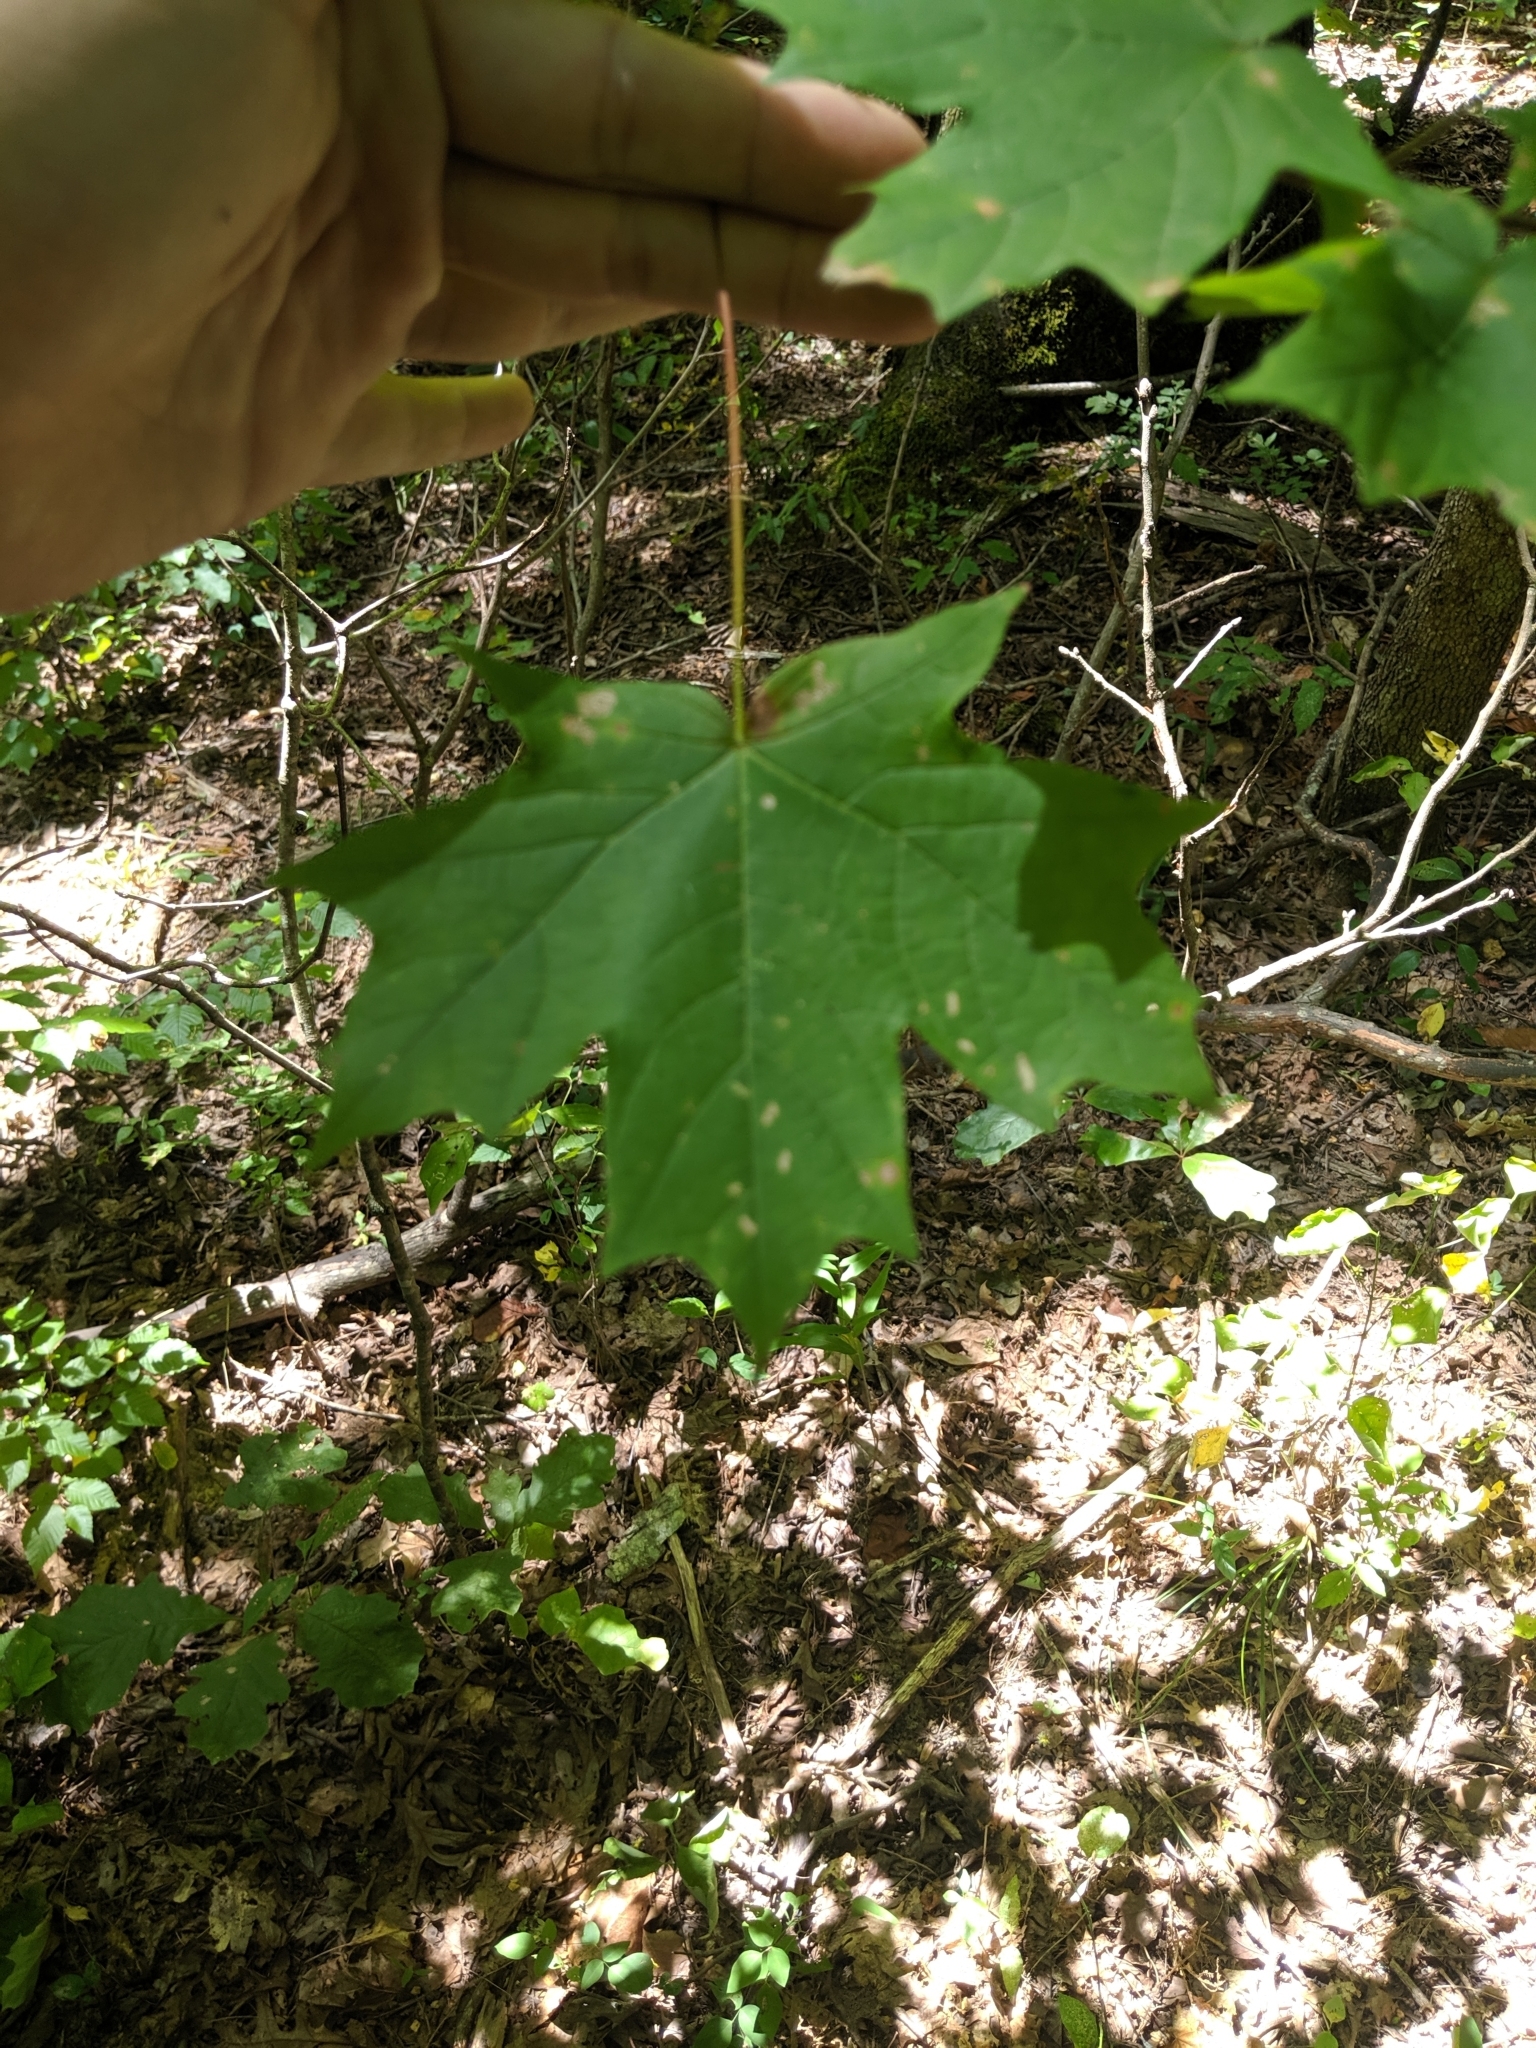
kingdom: Plantae
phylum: Tracheophyta
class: Magnoliopsida
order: Sapindales
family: Sapindaceae
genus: Acer
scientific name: Acer saccharum
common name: Sugar maple
